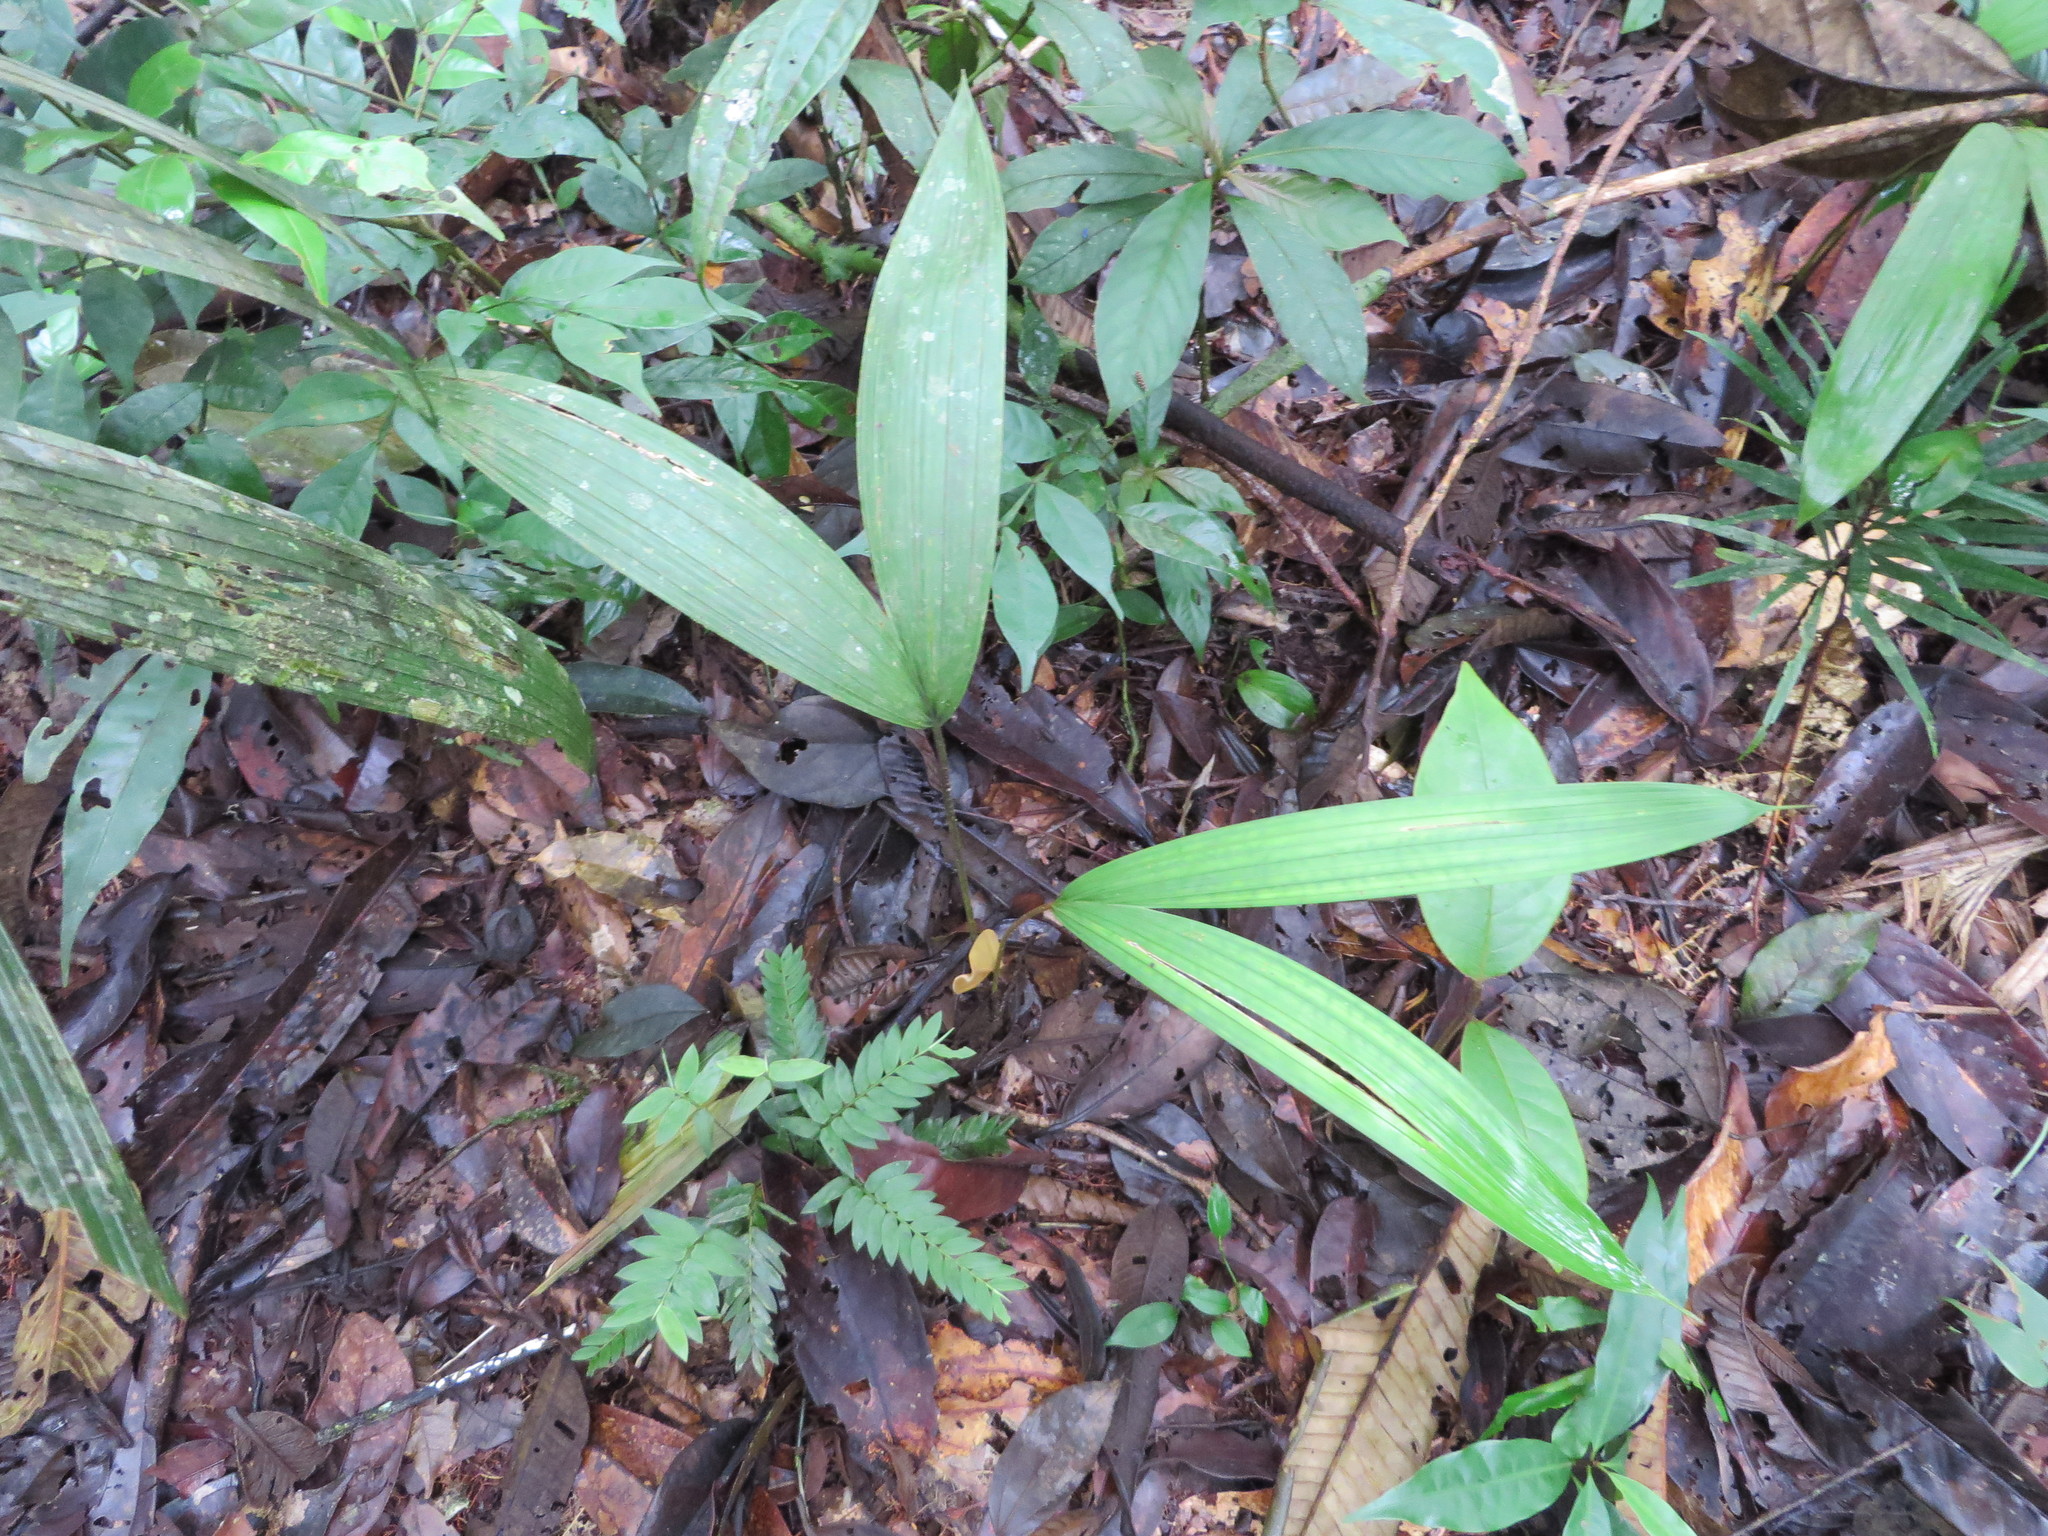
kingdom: Plantae
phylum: Tracheophyta
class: Liliopsida
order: Arecales
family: Arecaceae
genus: Oenocarpus
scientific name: Oenocarpus bataua
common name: Bataua palm
